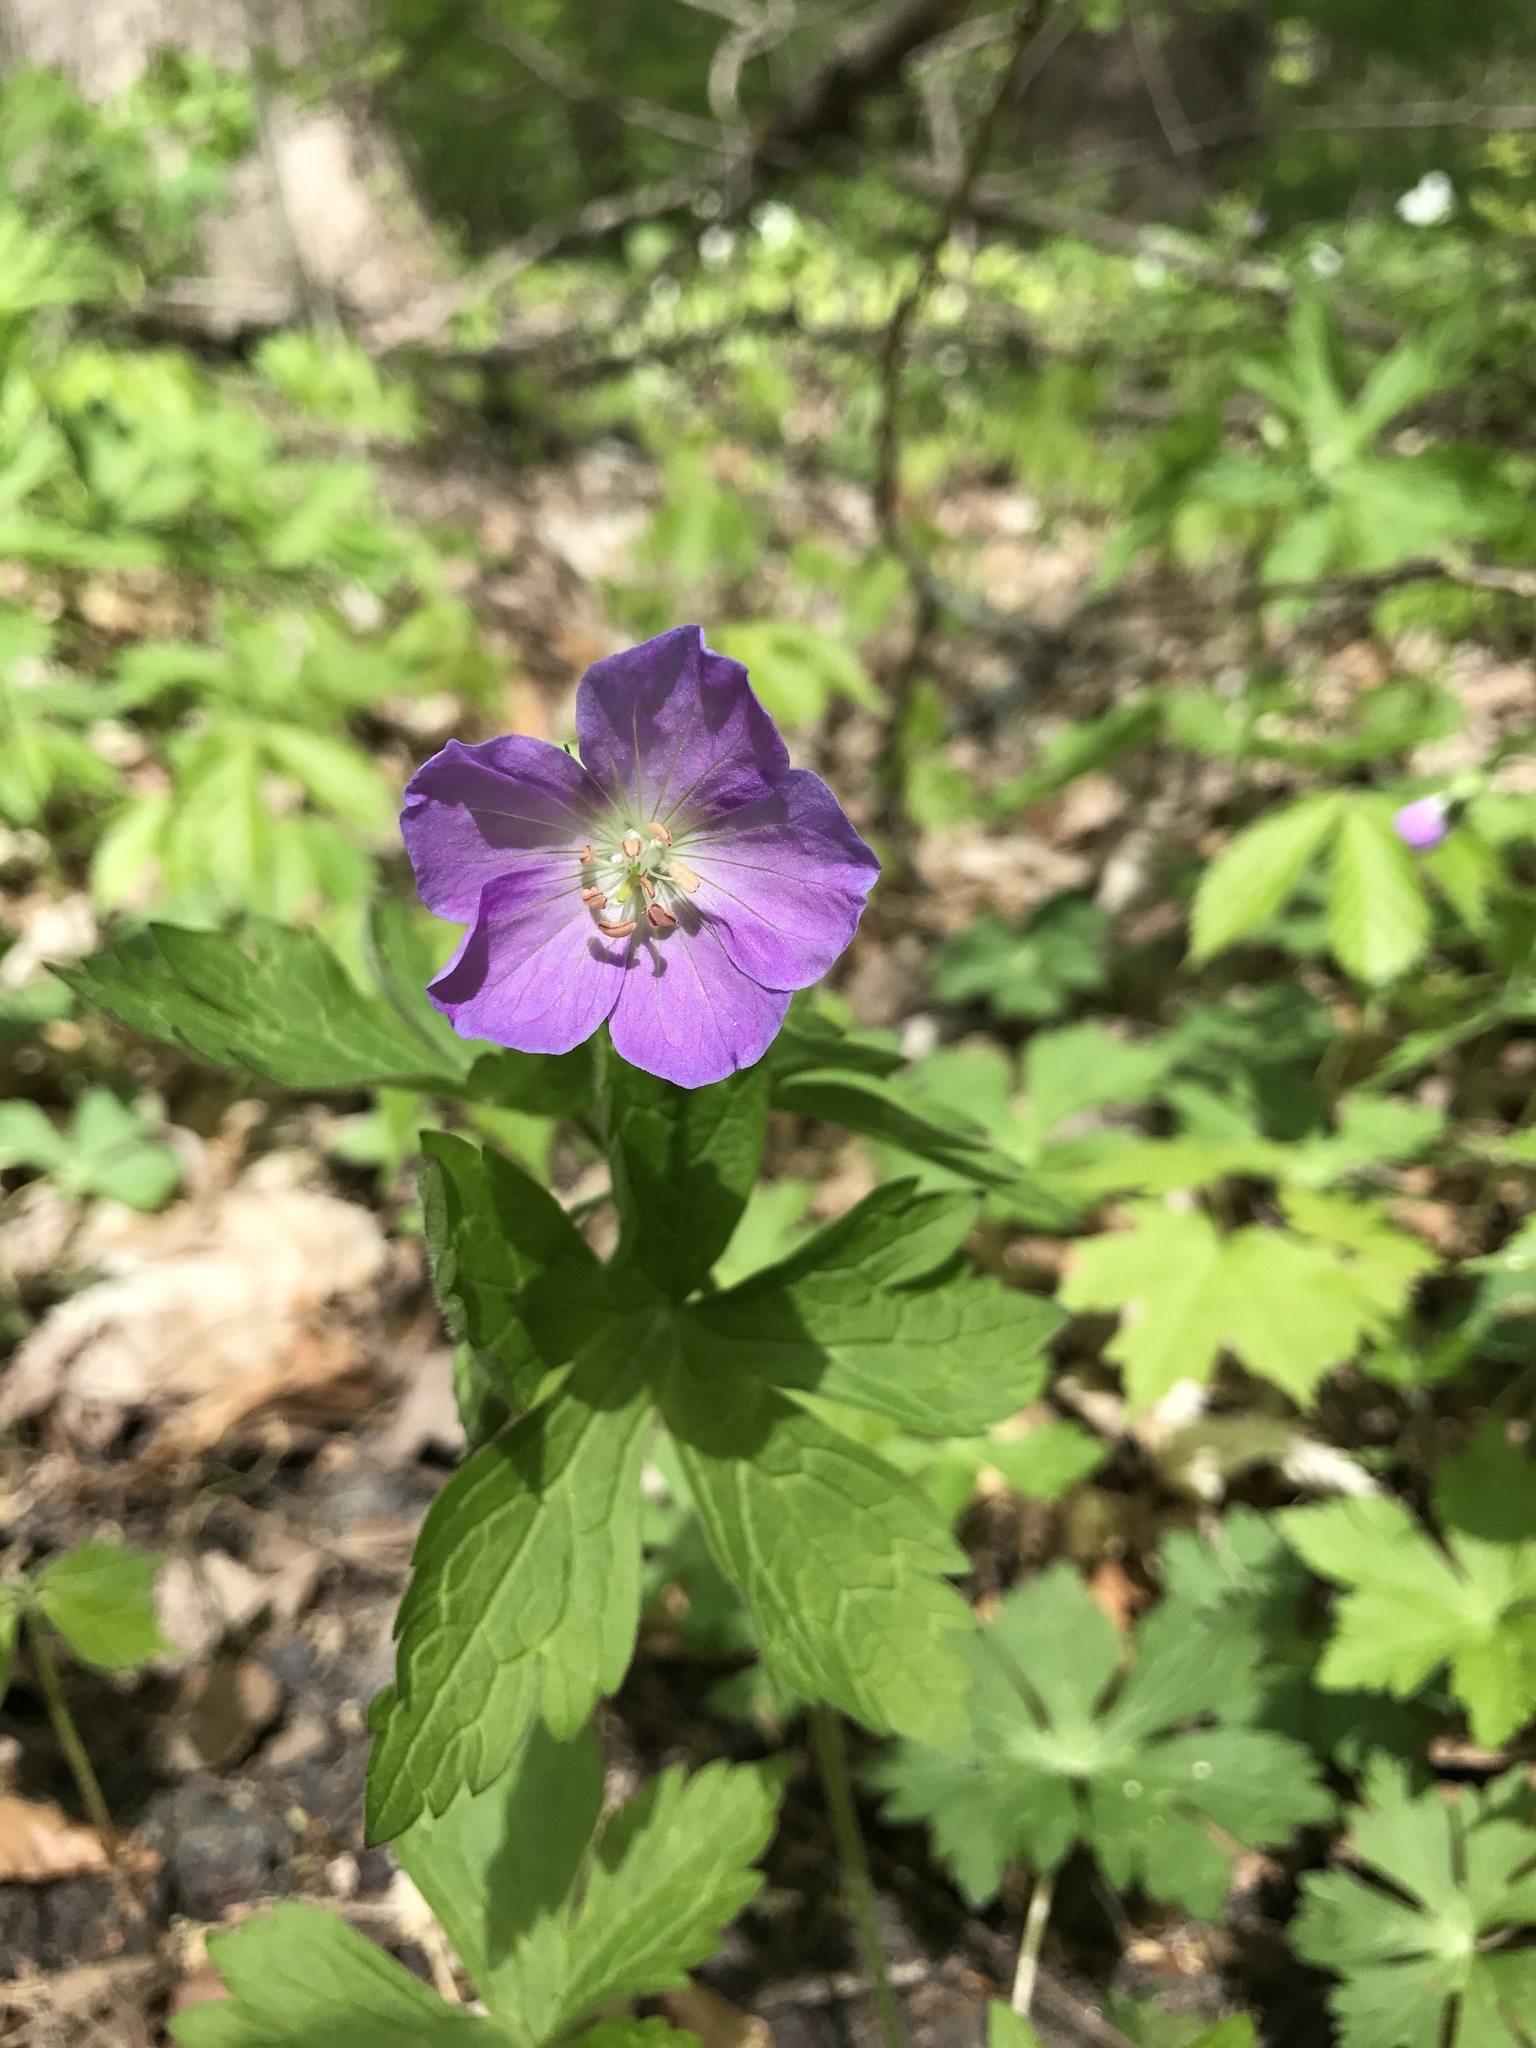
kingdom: Plantae
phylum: Tracheophyta
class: Magnoliopsida
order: Geraniales
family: Geraniaceae
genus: Geranium
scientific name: Geranium maculatum
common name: Spotted geranium
